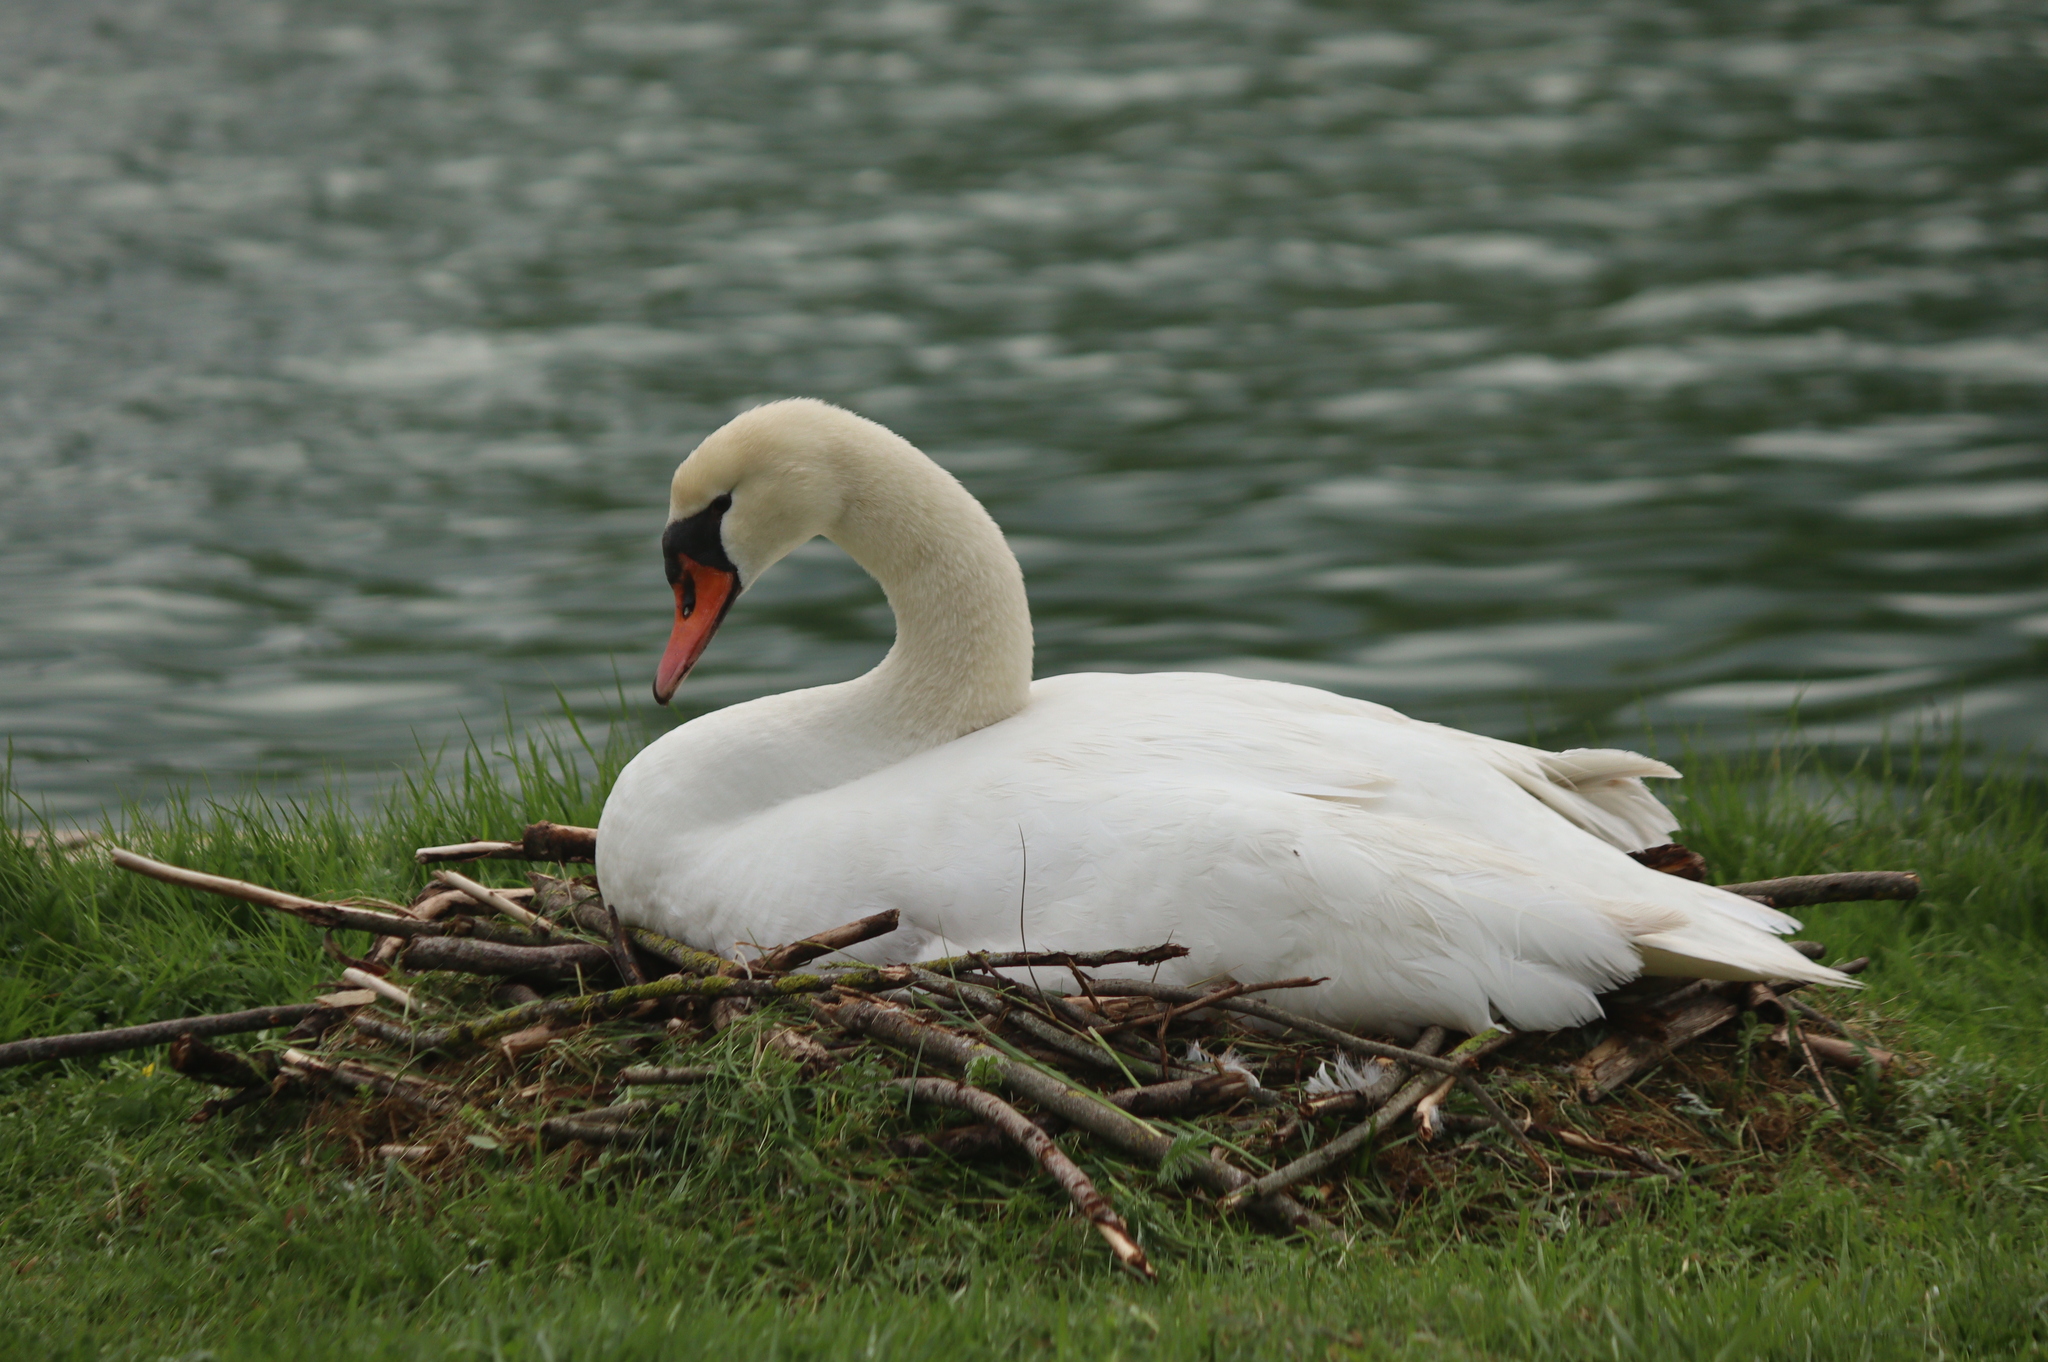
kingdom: Animalia
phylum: Chordata
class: Aves
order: Anseriformes
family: Anatidae
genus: Cygnus
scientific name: Cygnus olor
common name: Mute swan
